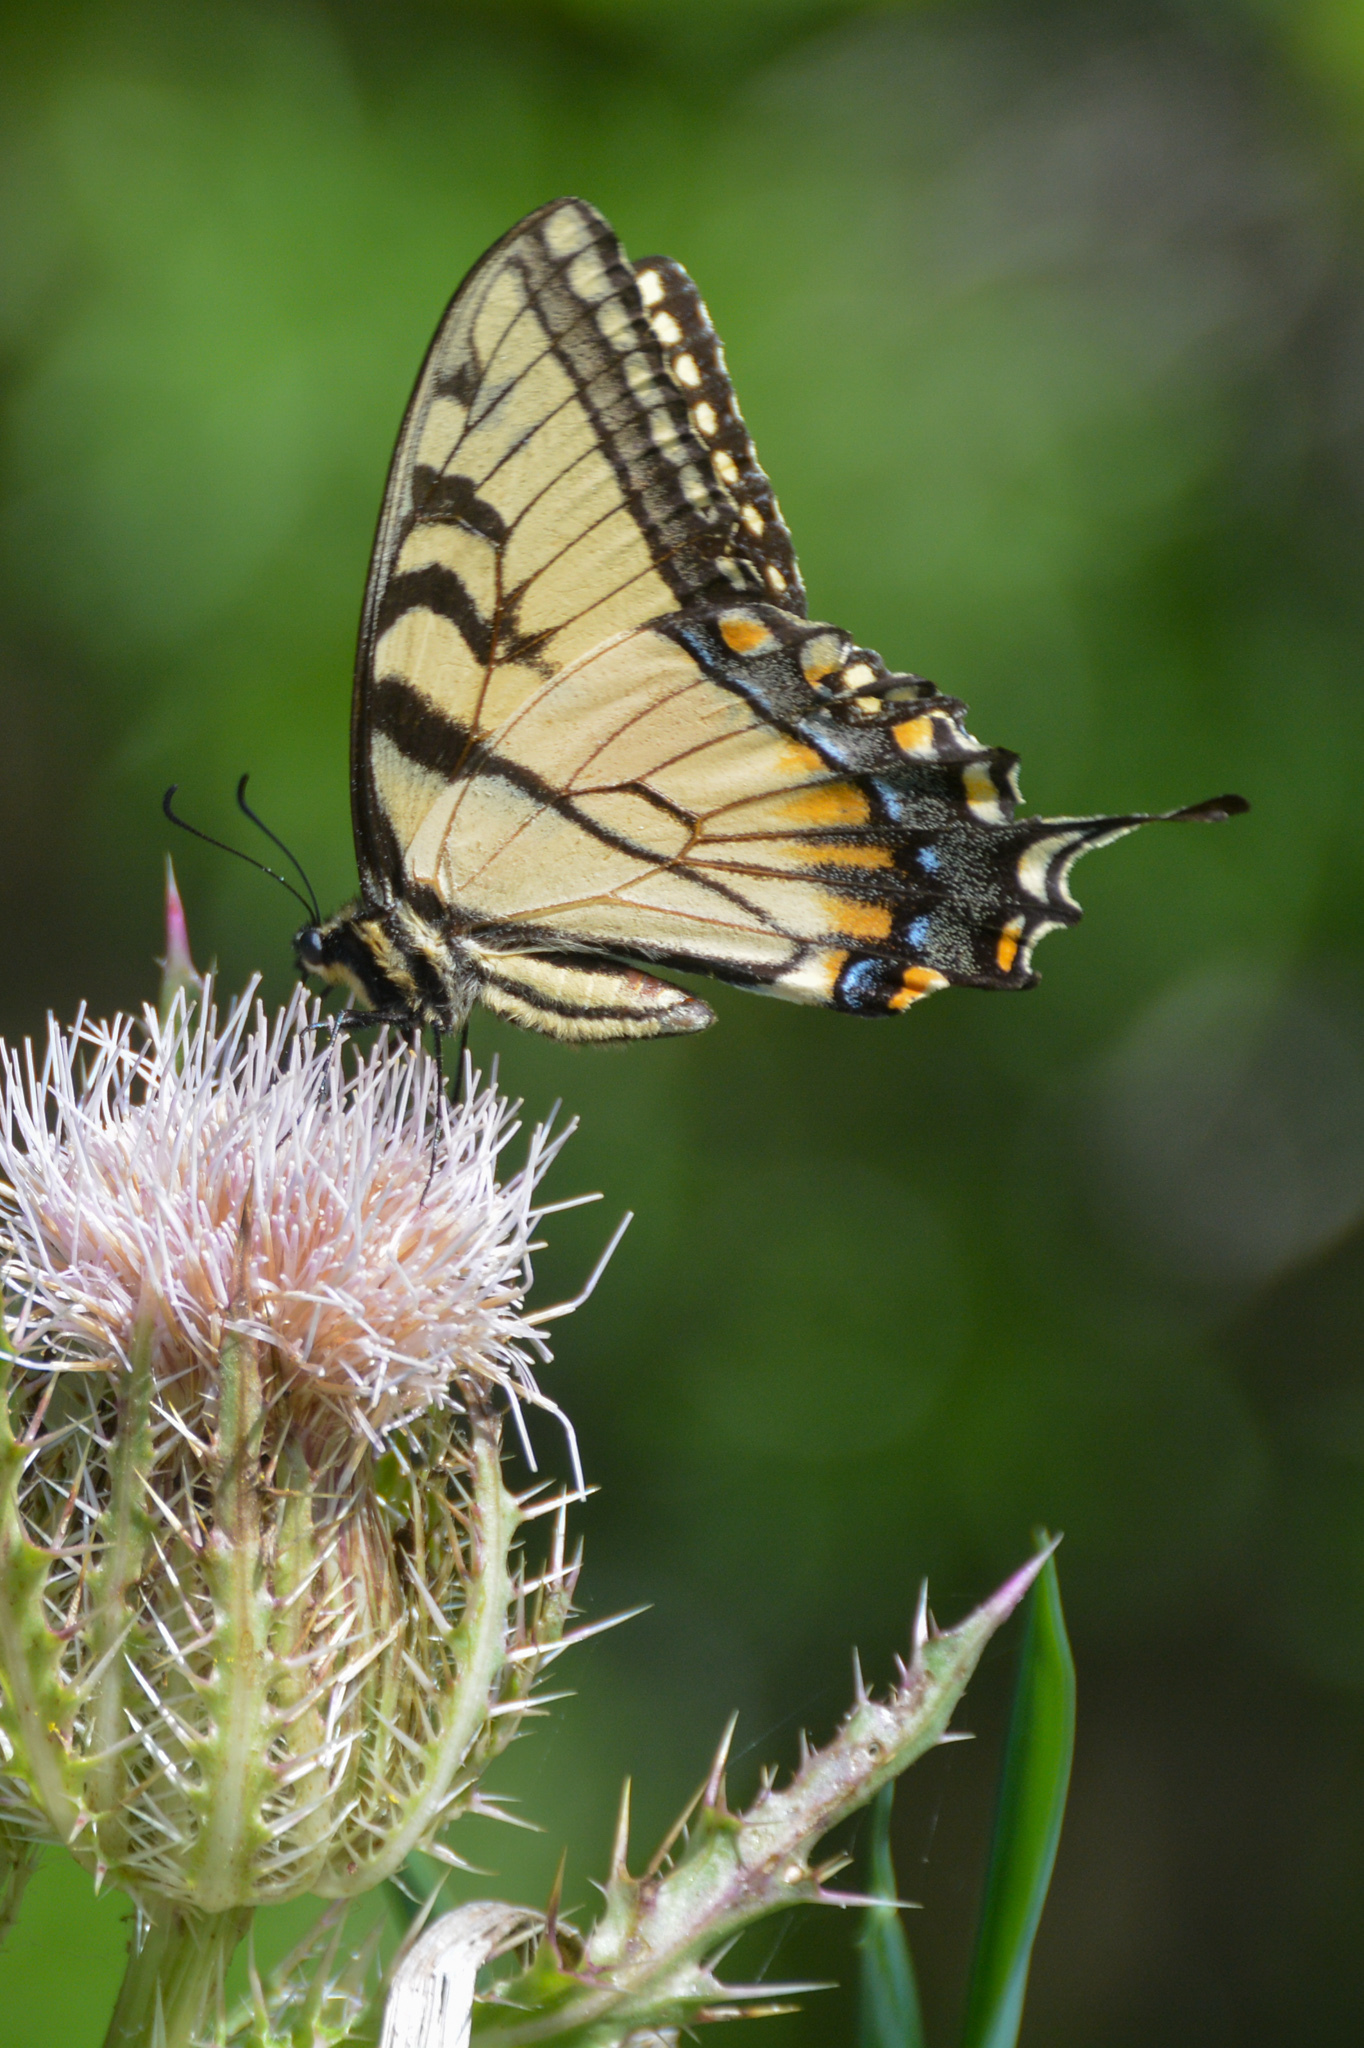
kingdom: Animalia
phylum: Arthropoda
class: Insecta
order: Lepidoptera
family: Papilionidae
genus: Papilio
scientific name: Papilio glaucus
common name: Tiger swallowtail
